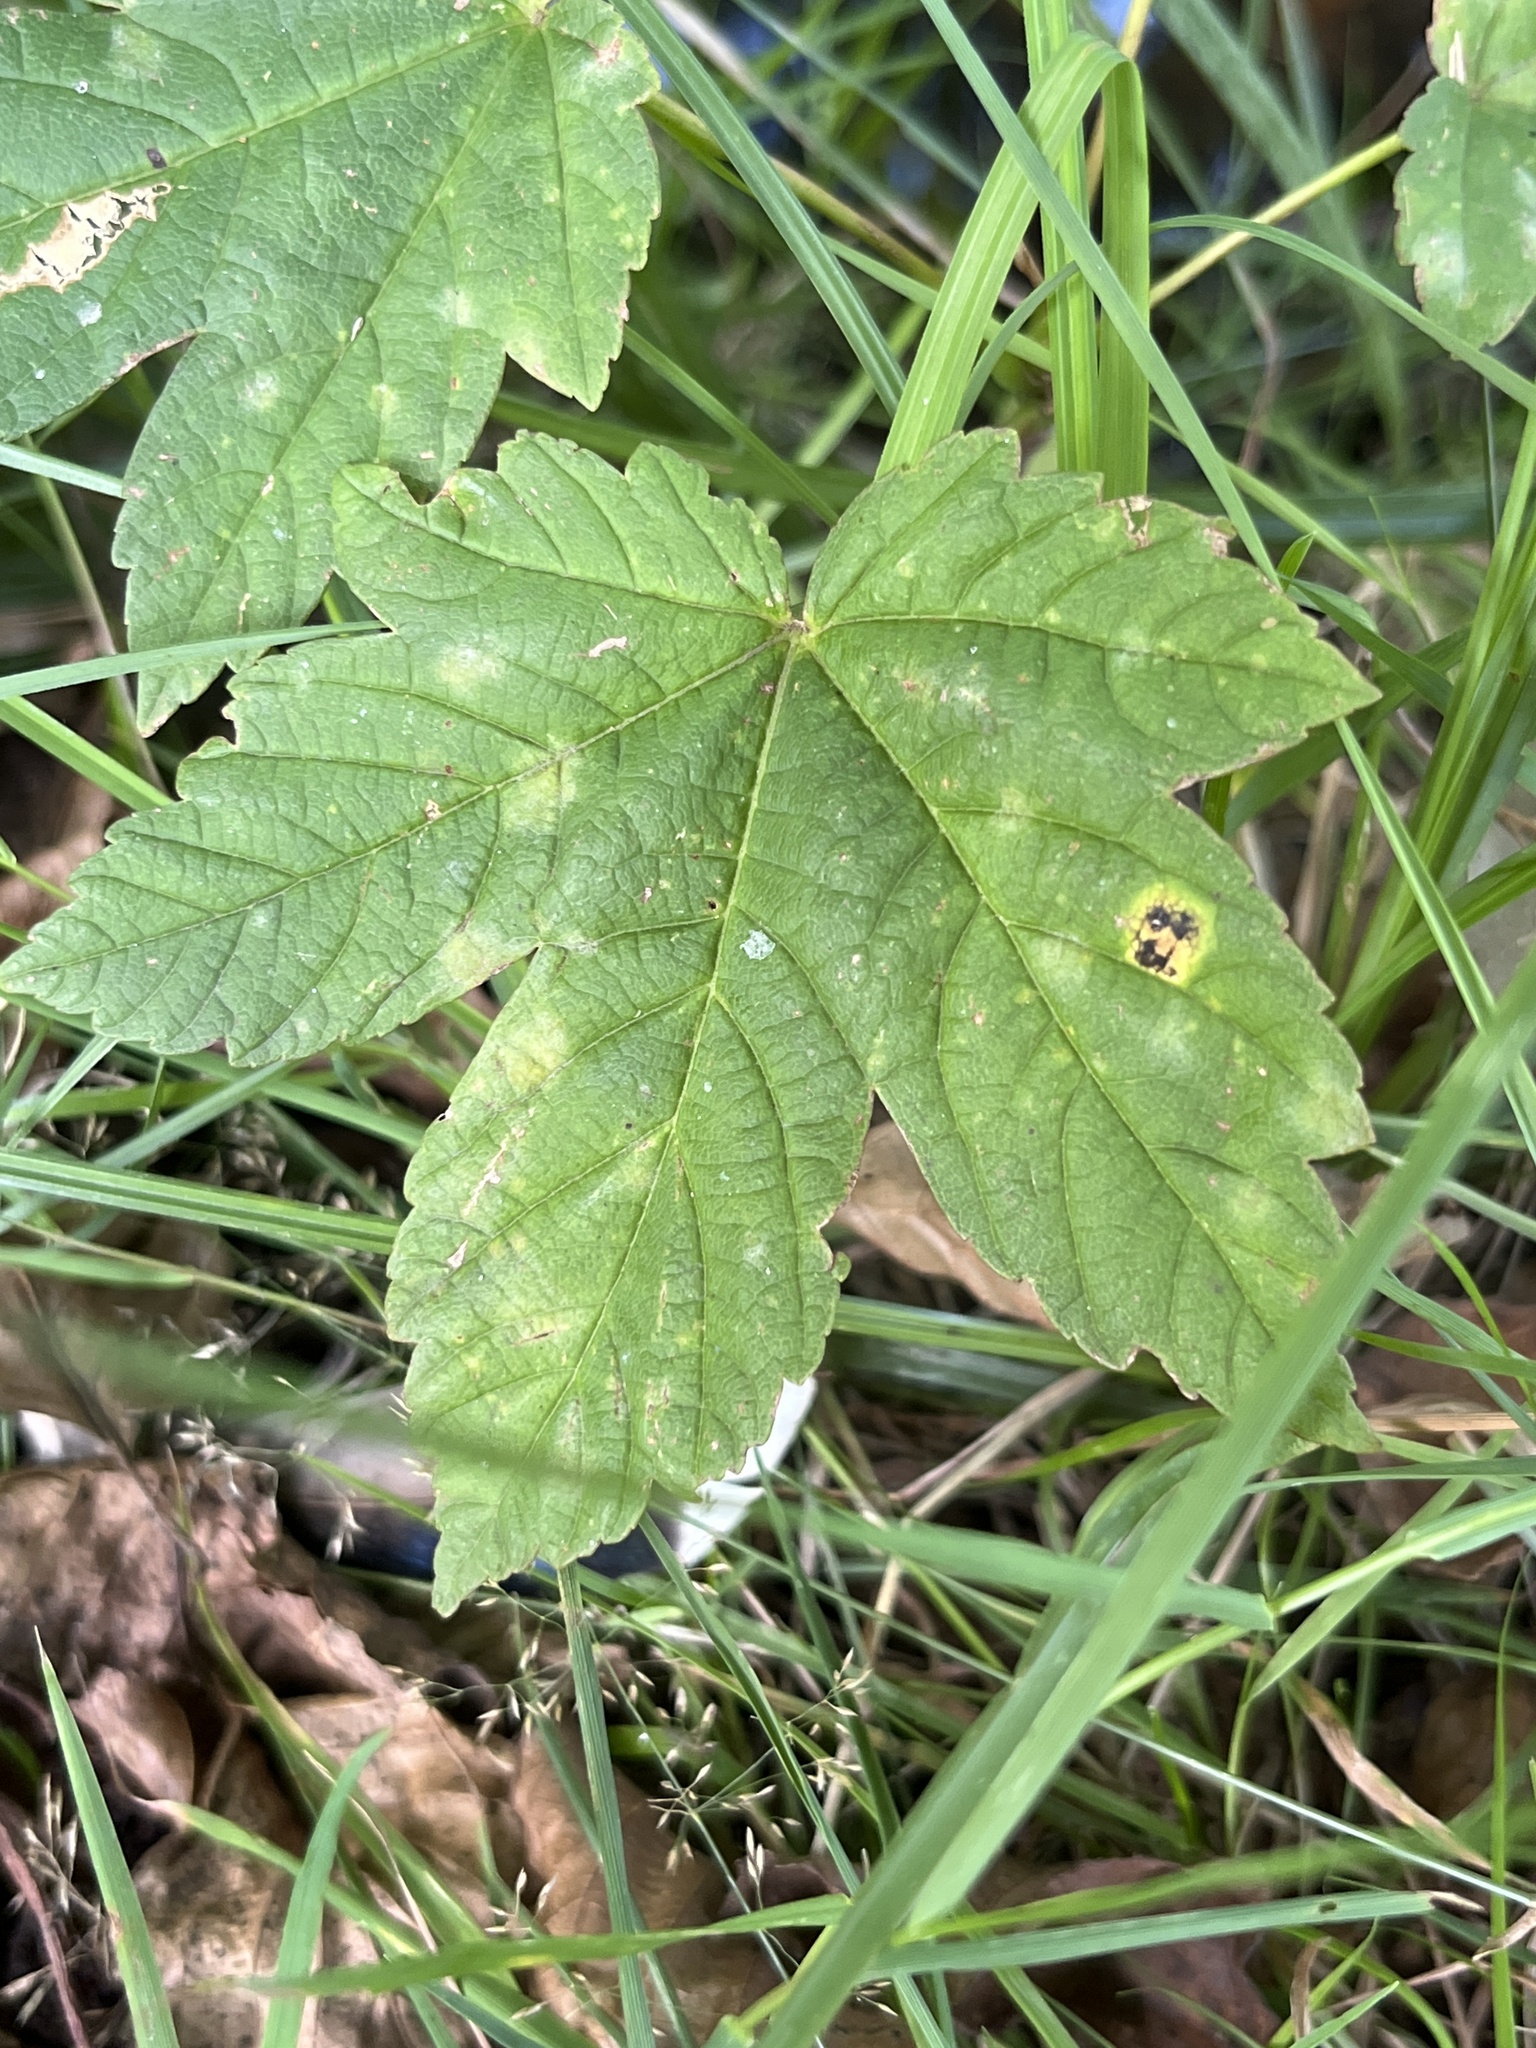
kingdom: Fungi
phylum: Ascomycota
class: Leotiomycetes
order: Rhytismatales
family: Rhytismataceae
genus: Rhytisma
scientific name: Rhytisma acerinum
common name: European tar spot
